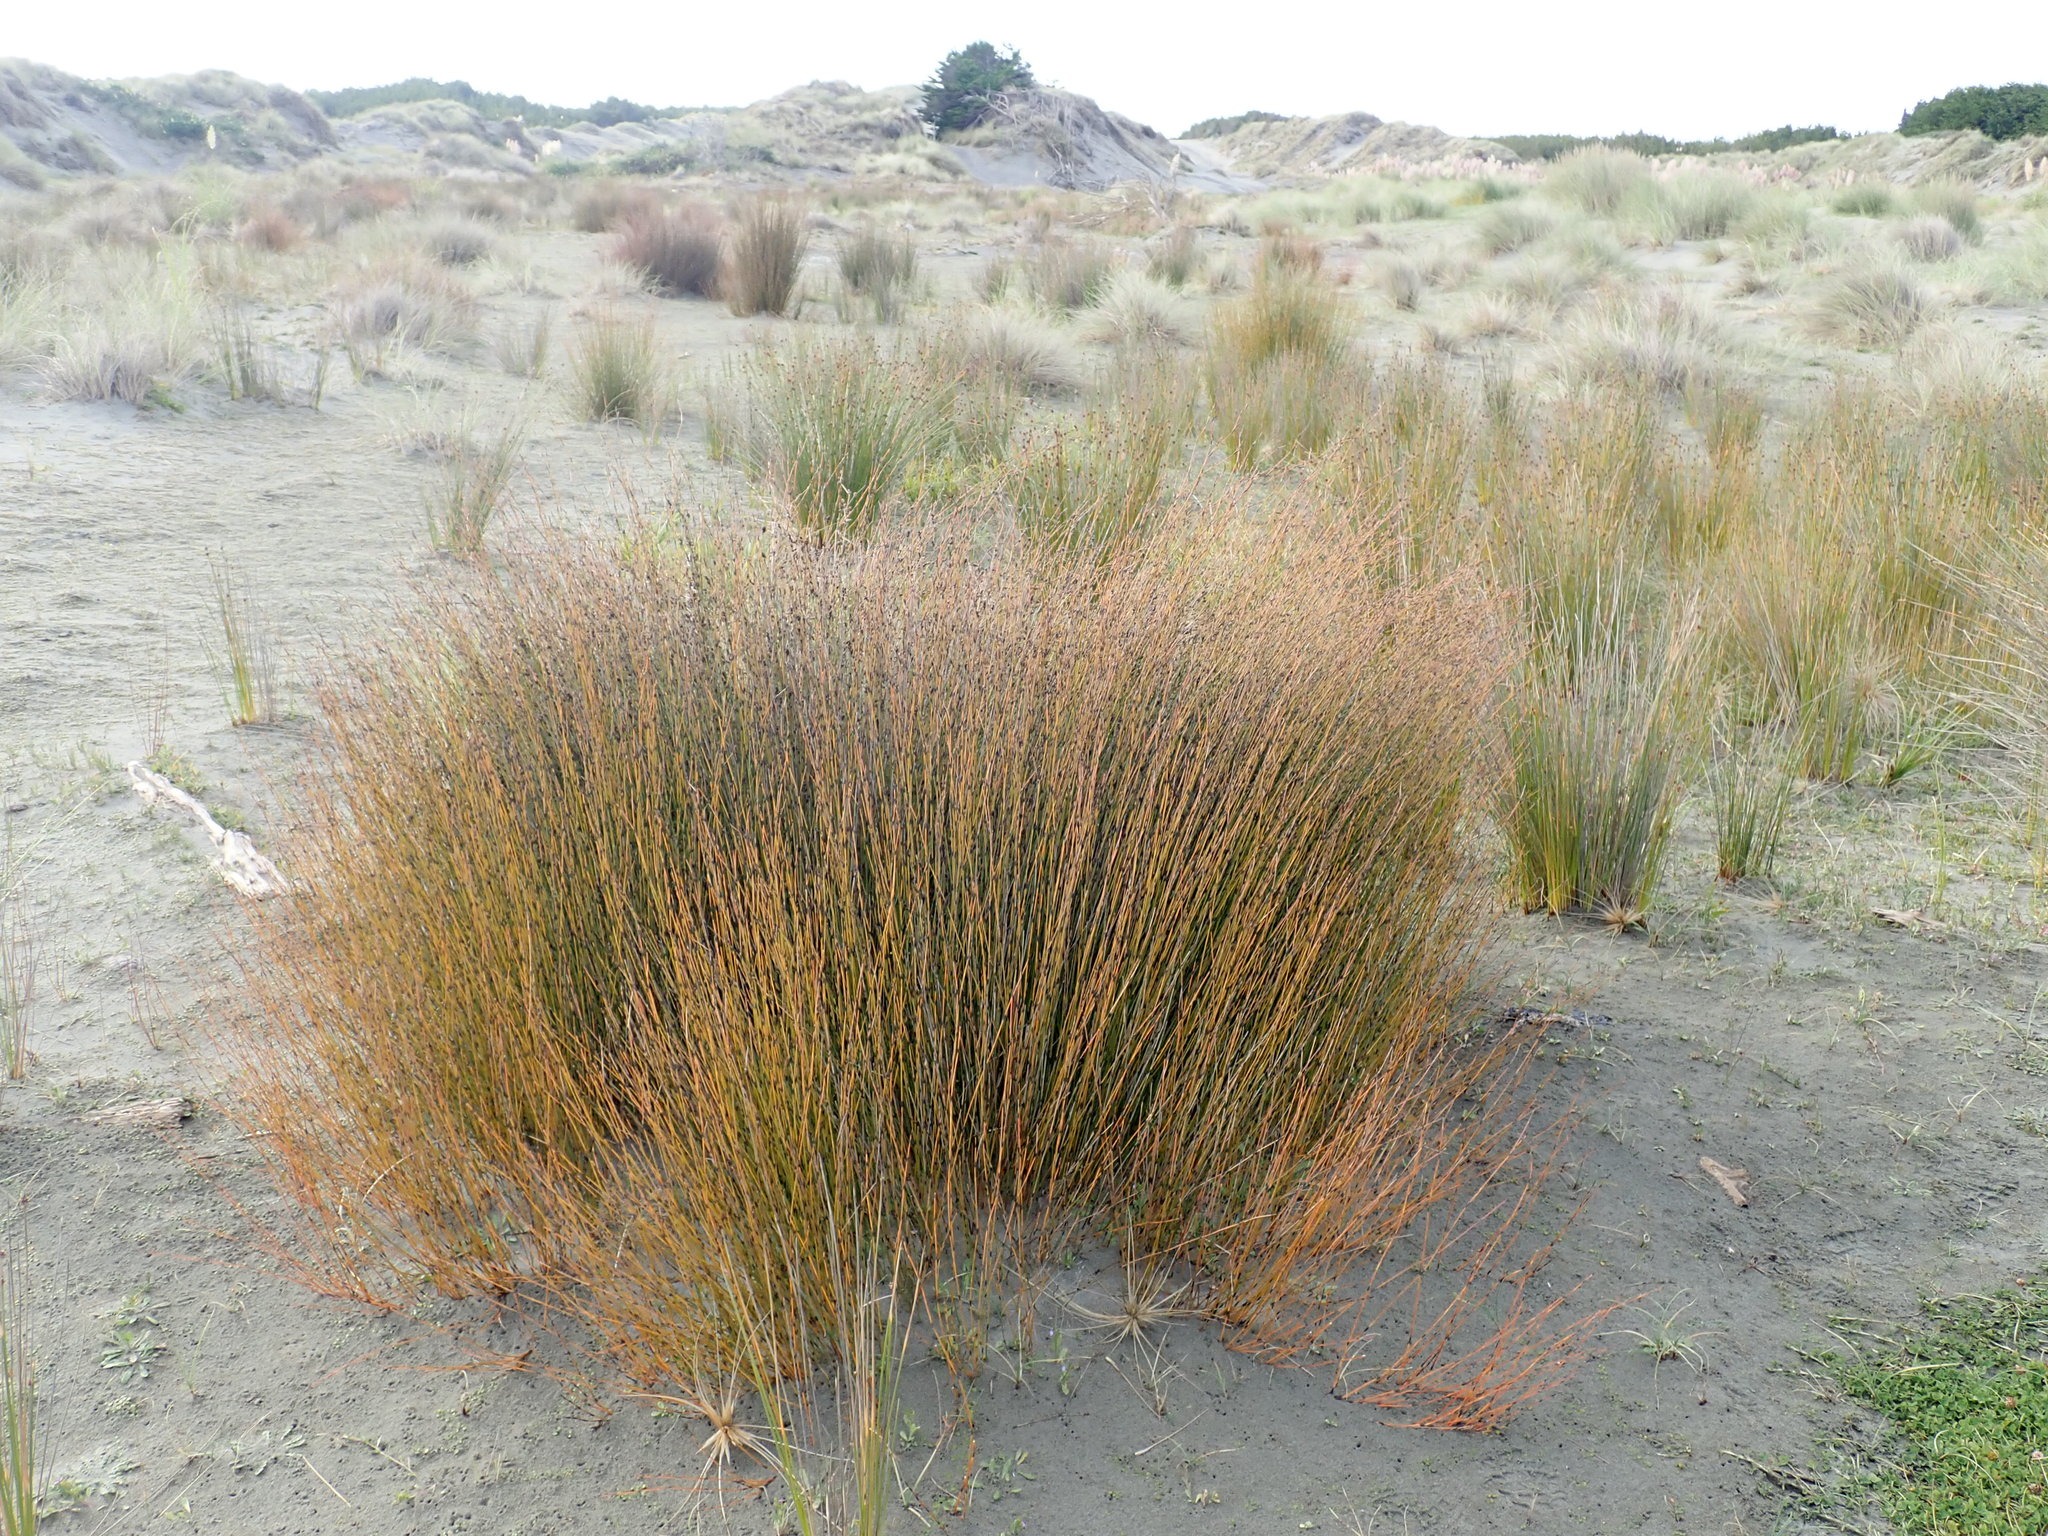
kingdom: Plantae
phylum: Tracheophyta
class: Liliopsida
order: Poales
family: Restionaceae
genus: Apodasmia
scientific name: Apodasmia similis
